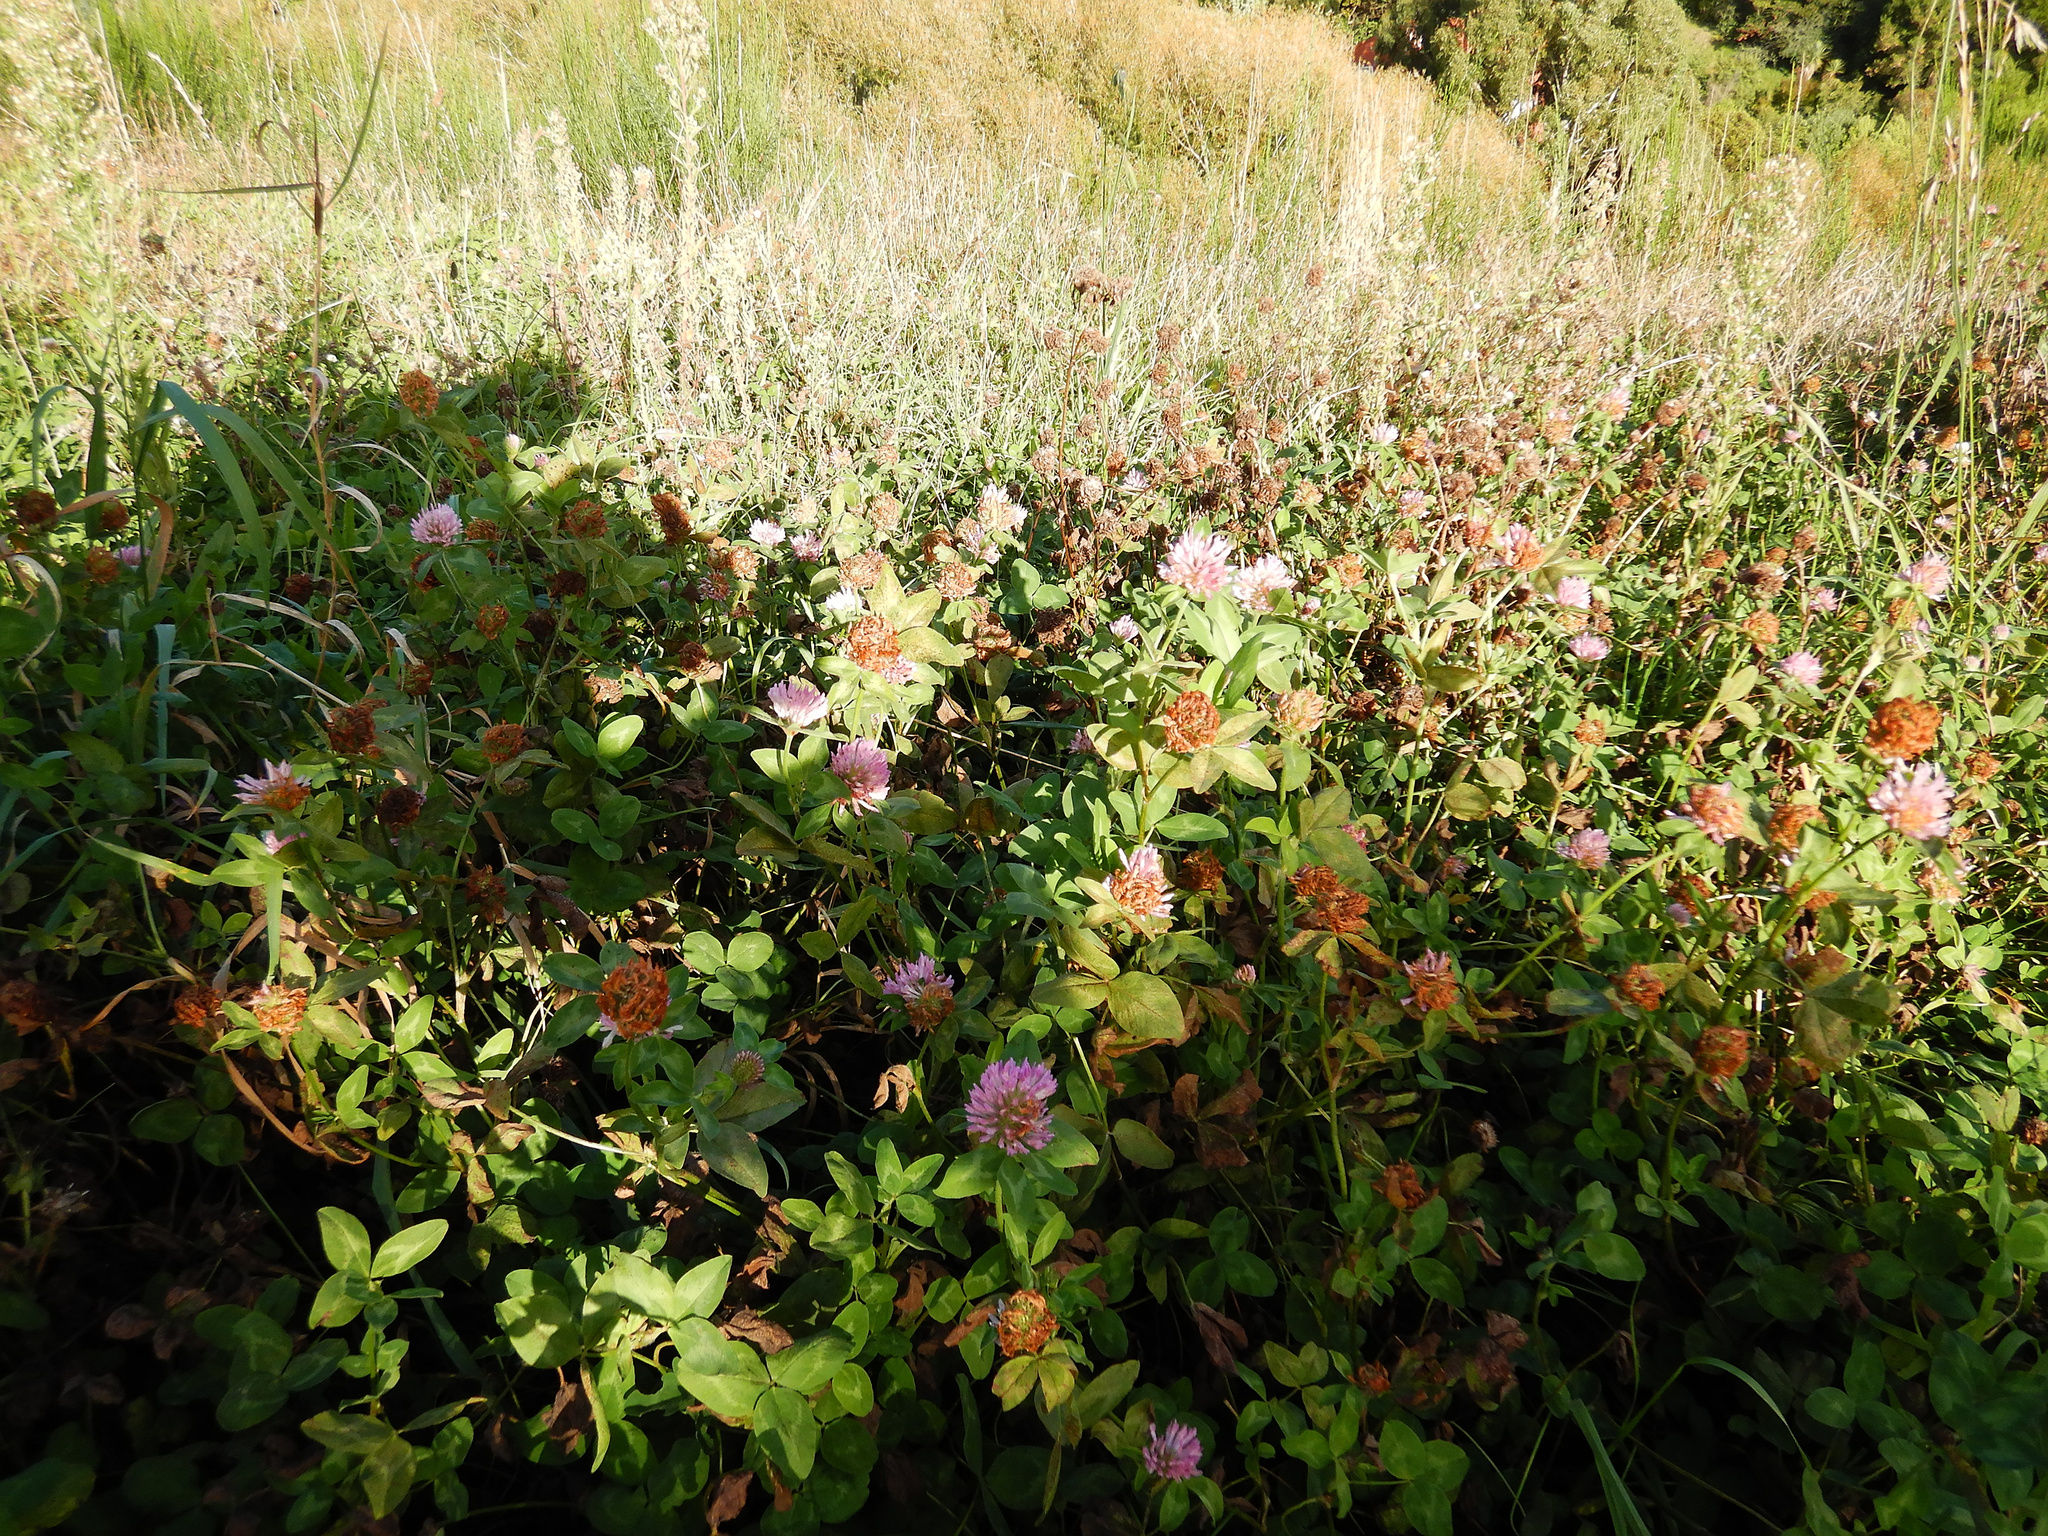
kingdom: Plantae
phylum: Tracheophyta
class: Magnoliopsida
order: Fabales
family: Fabaceae
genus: Trifolium
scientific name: Trifolium pratense
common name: Red clover
